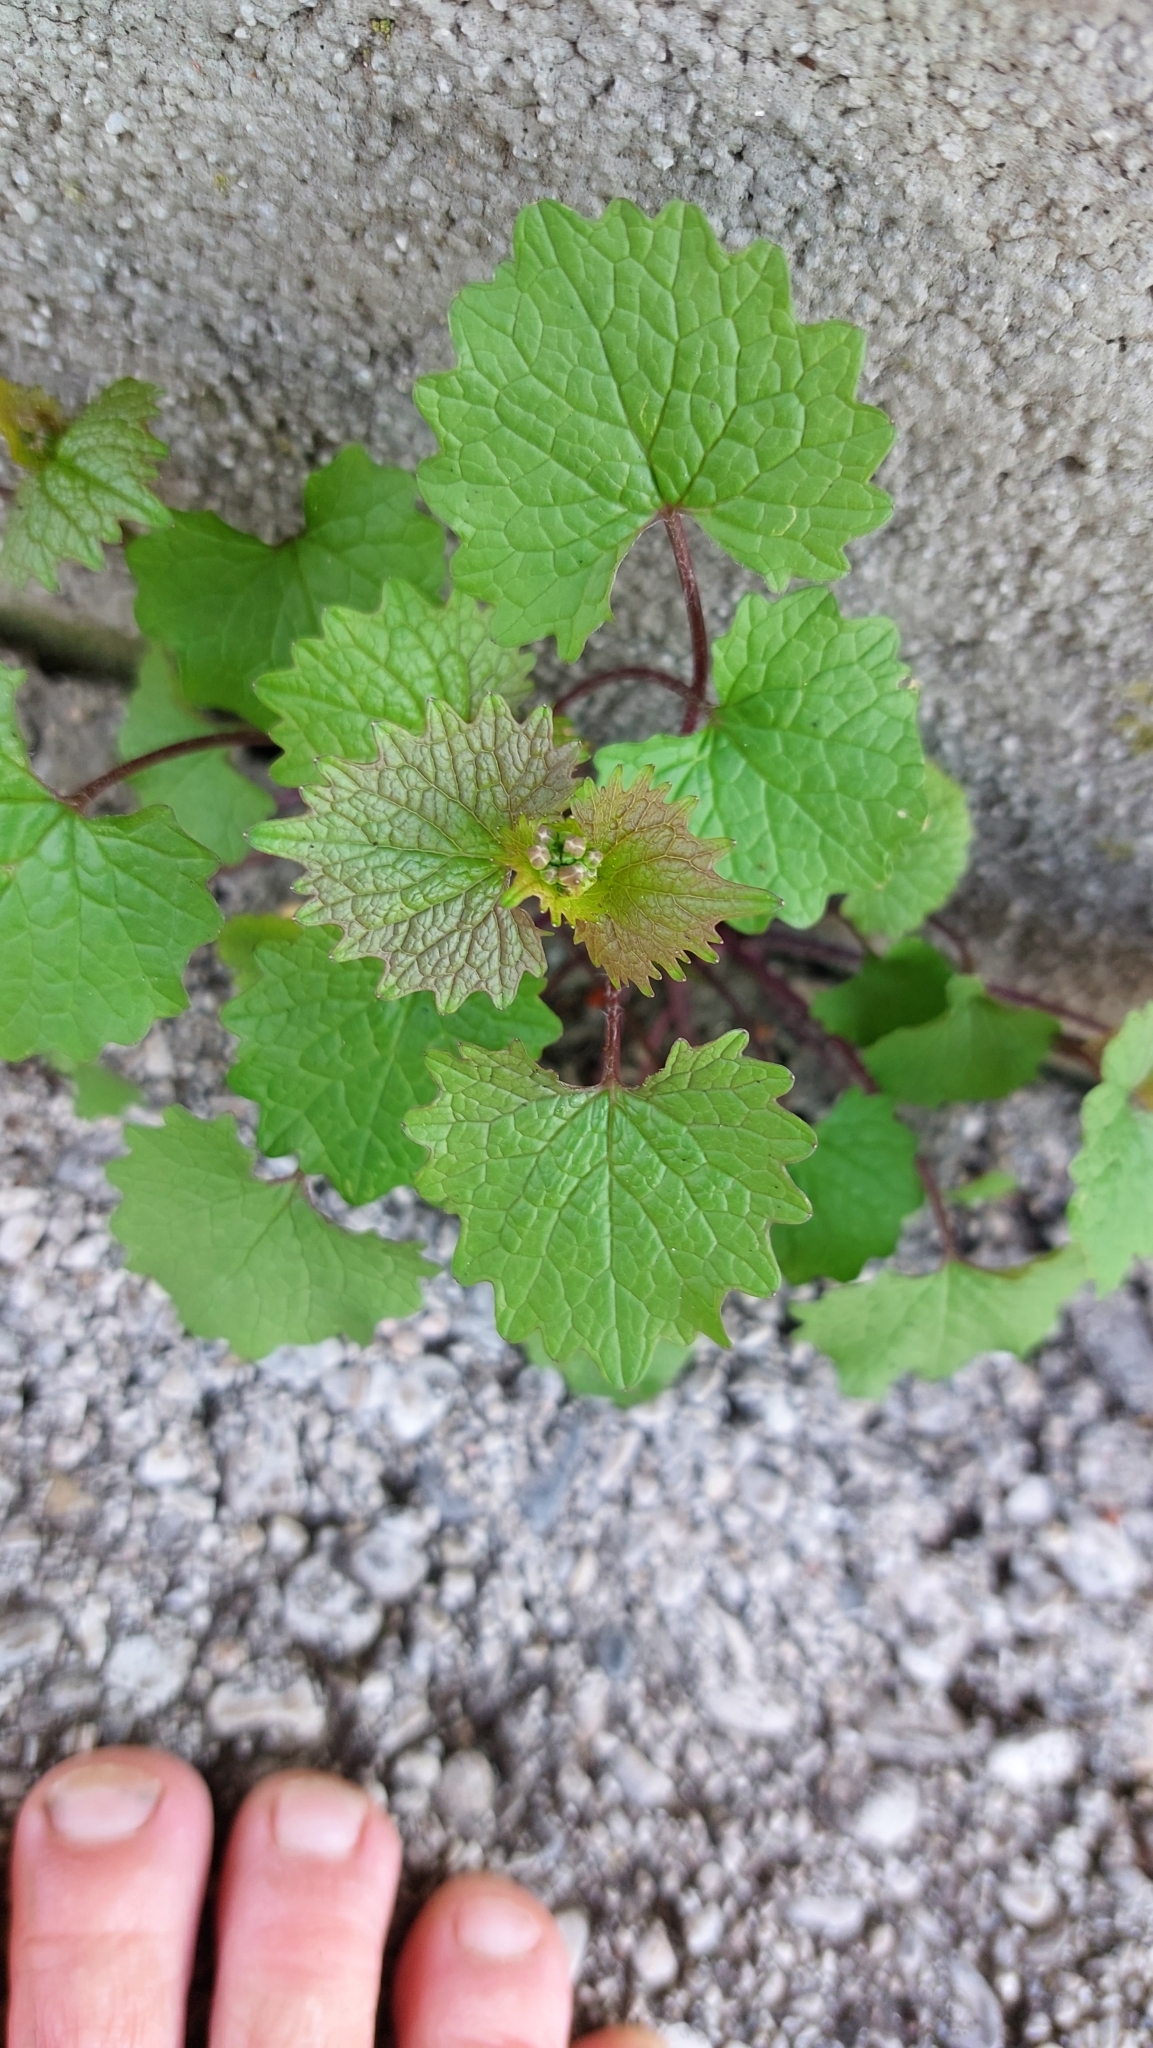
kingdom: Plantae
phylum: Tracheophyta
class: Magnoliopsida
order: Brassicales
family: Brassicaceae
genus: Alliaria
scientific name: Alliaria petiolata
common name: Garlic mustard
